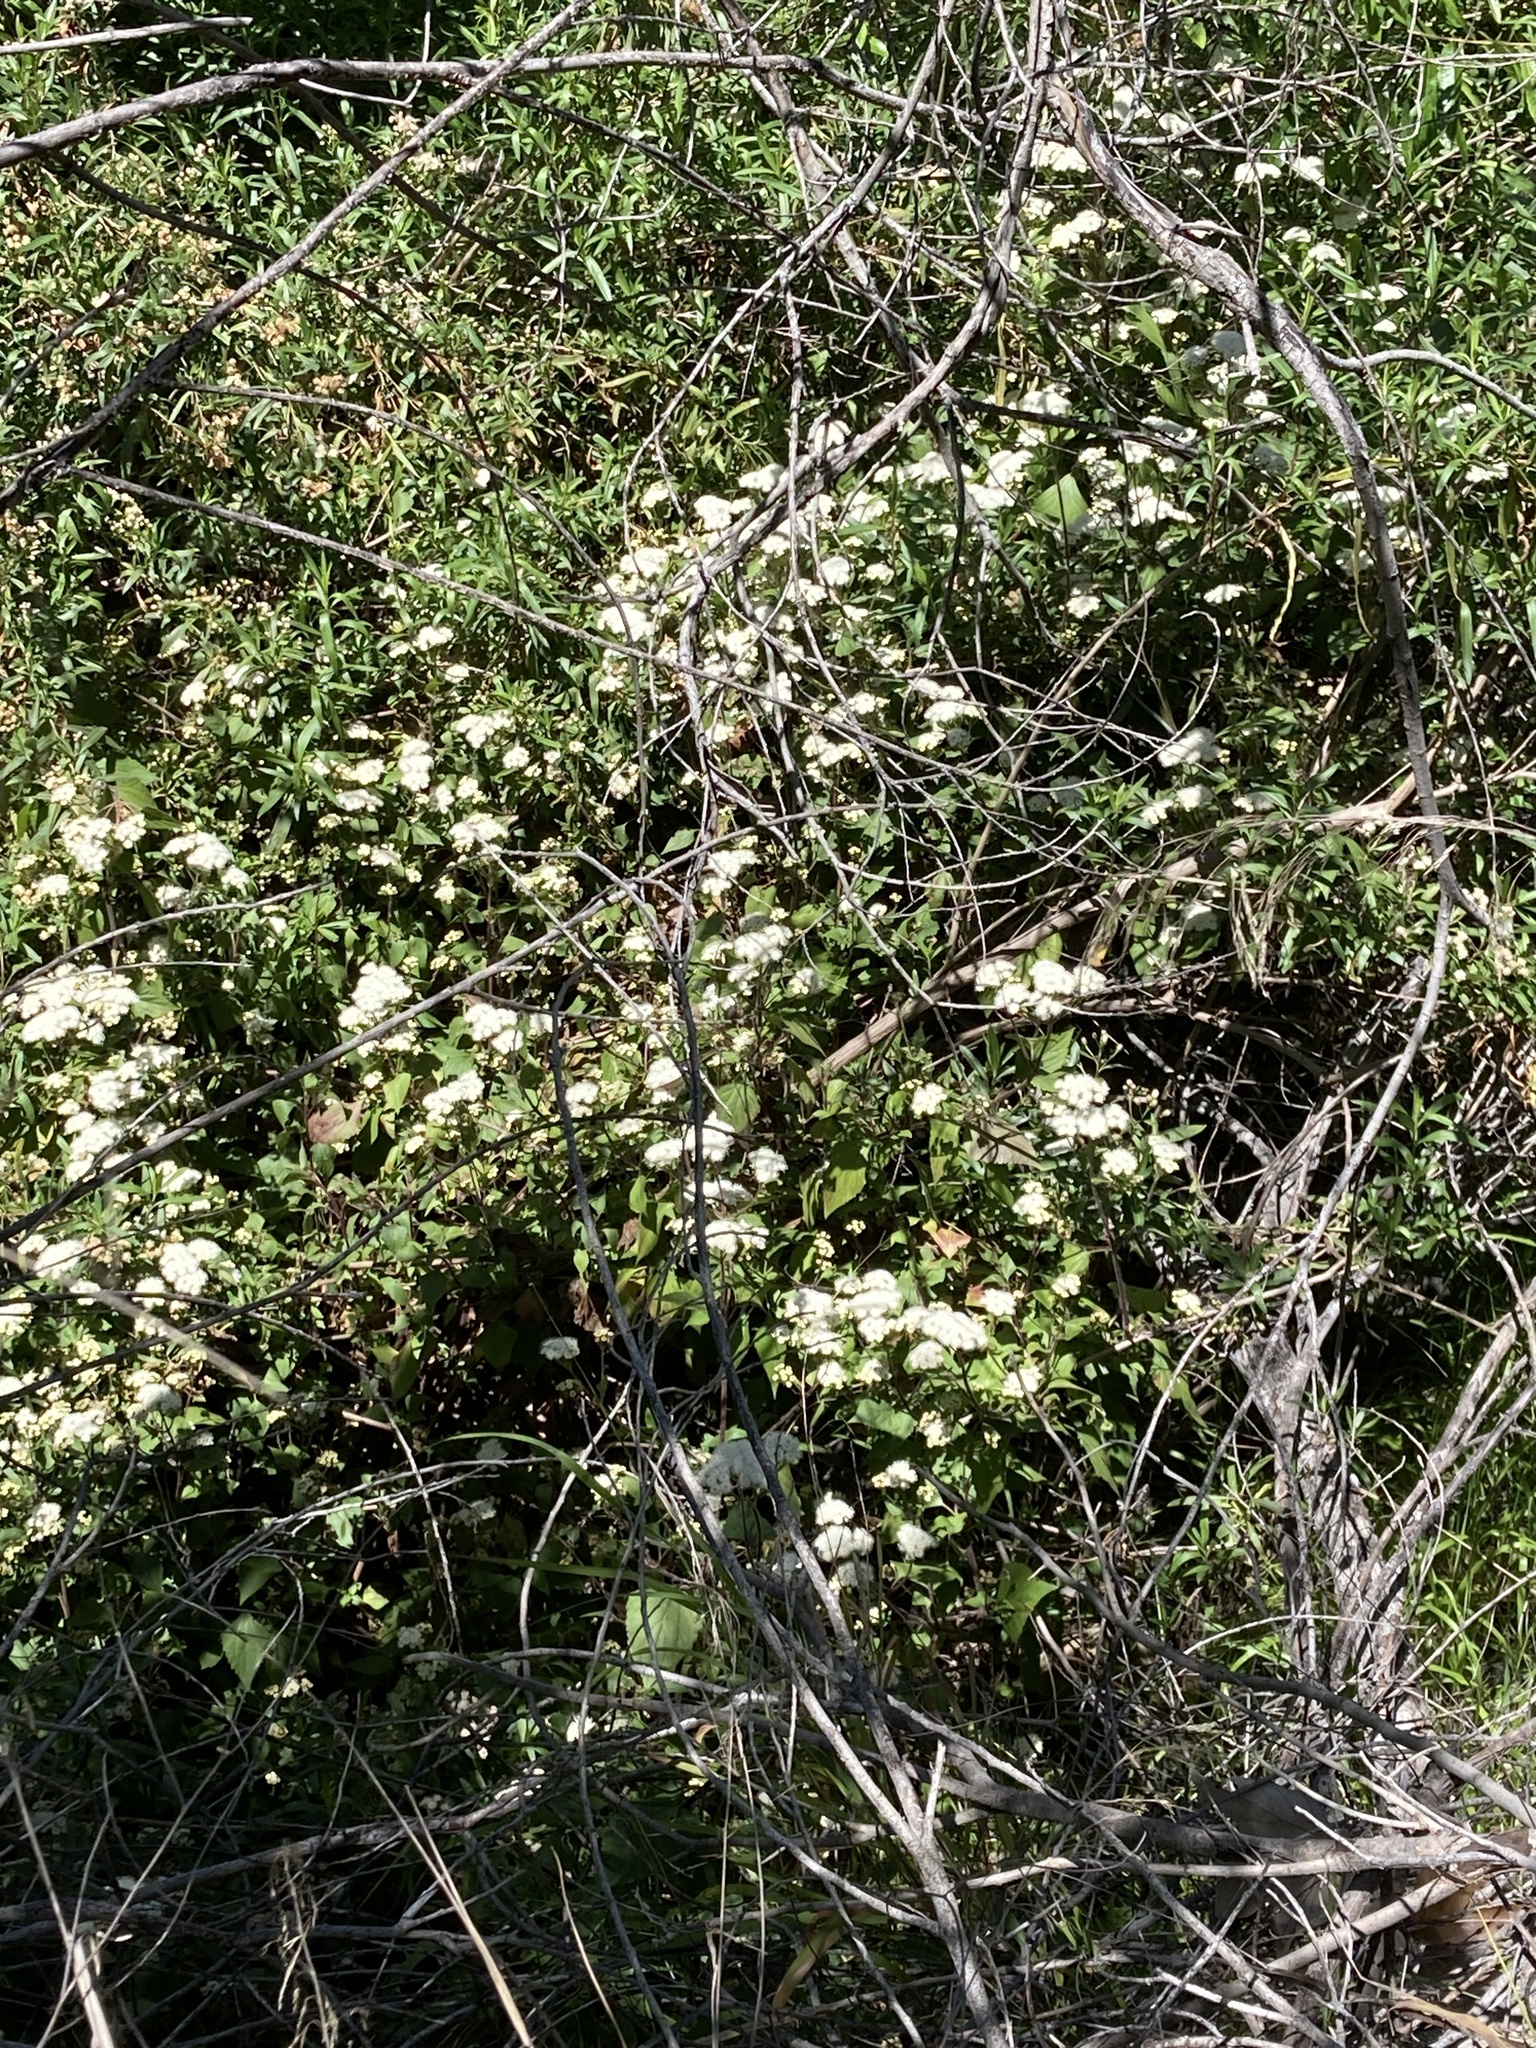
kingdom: Plantae
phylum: Tracheophyta
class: Magnoliopsida
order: Asterales
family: Asteraceae
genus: Ageratina
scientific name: Ageratina adenophora
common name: Sticky snakeroot
